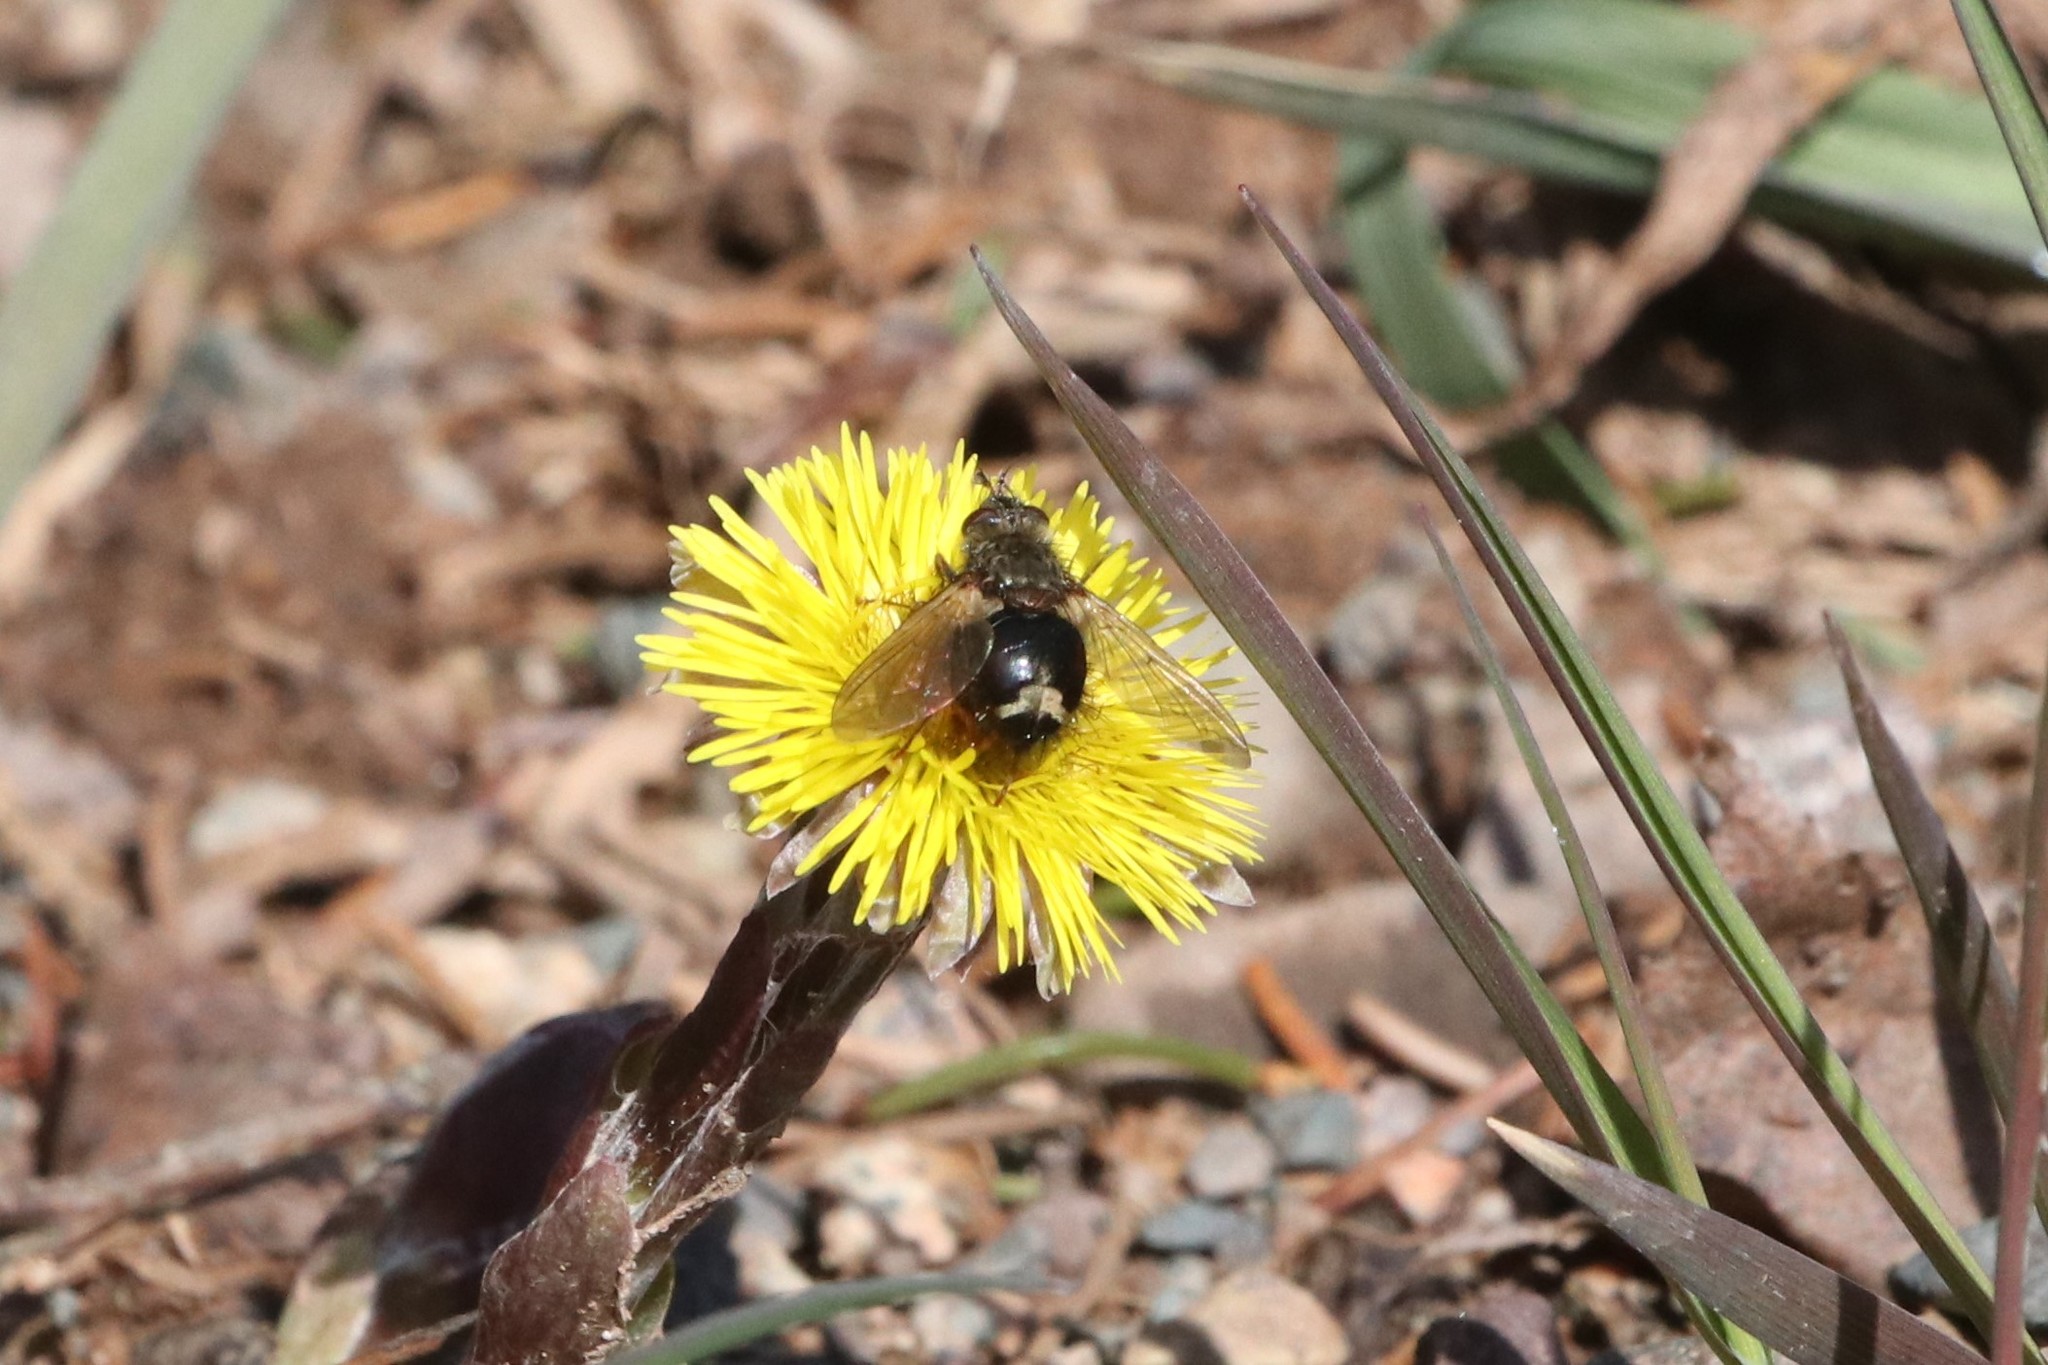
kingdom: Animalia
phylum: Arthropoda
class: Insecta
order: Diptera
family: Tachinidae
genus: Epalpus
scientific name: Epalpus signifer
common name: Early tachinid fly
